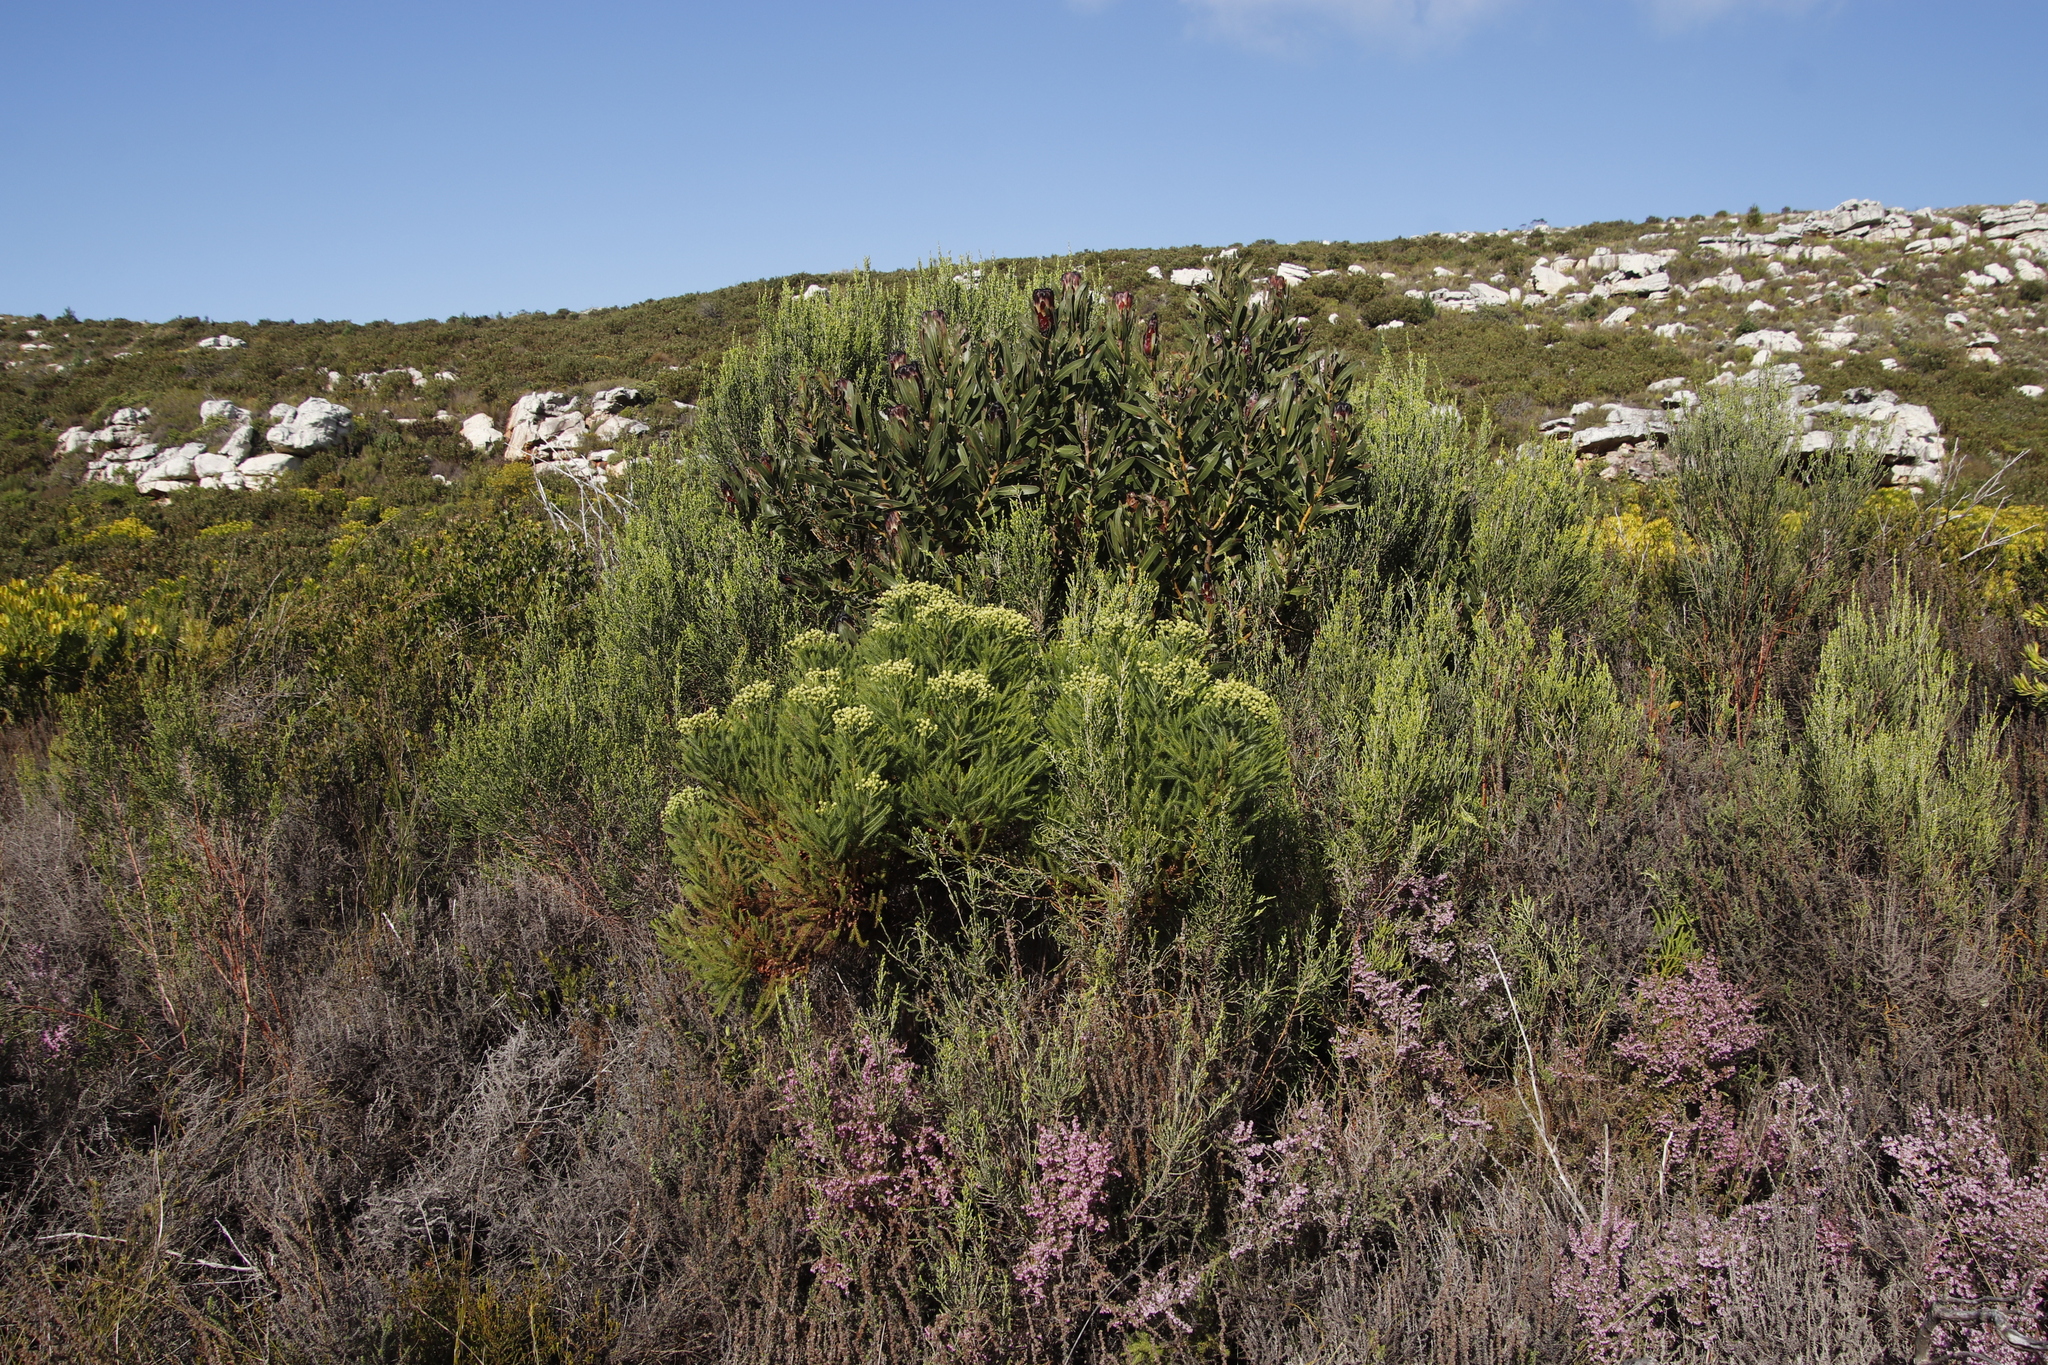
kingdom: Plantae
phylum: Tracheophyta
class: Magnoliopsida
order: Proteales
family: Proteaceae
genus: Protea
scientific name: Protea lepidocarpodendron
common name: Black-bearded protea
